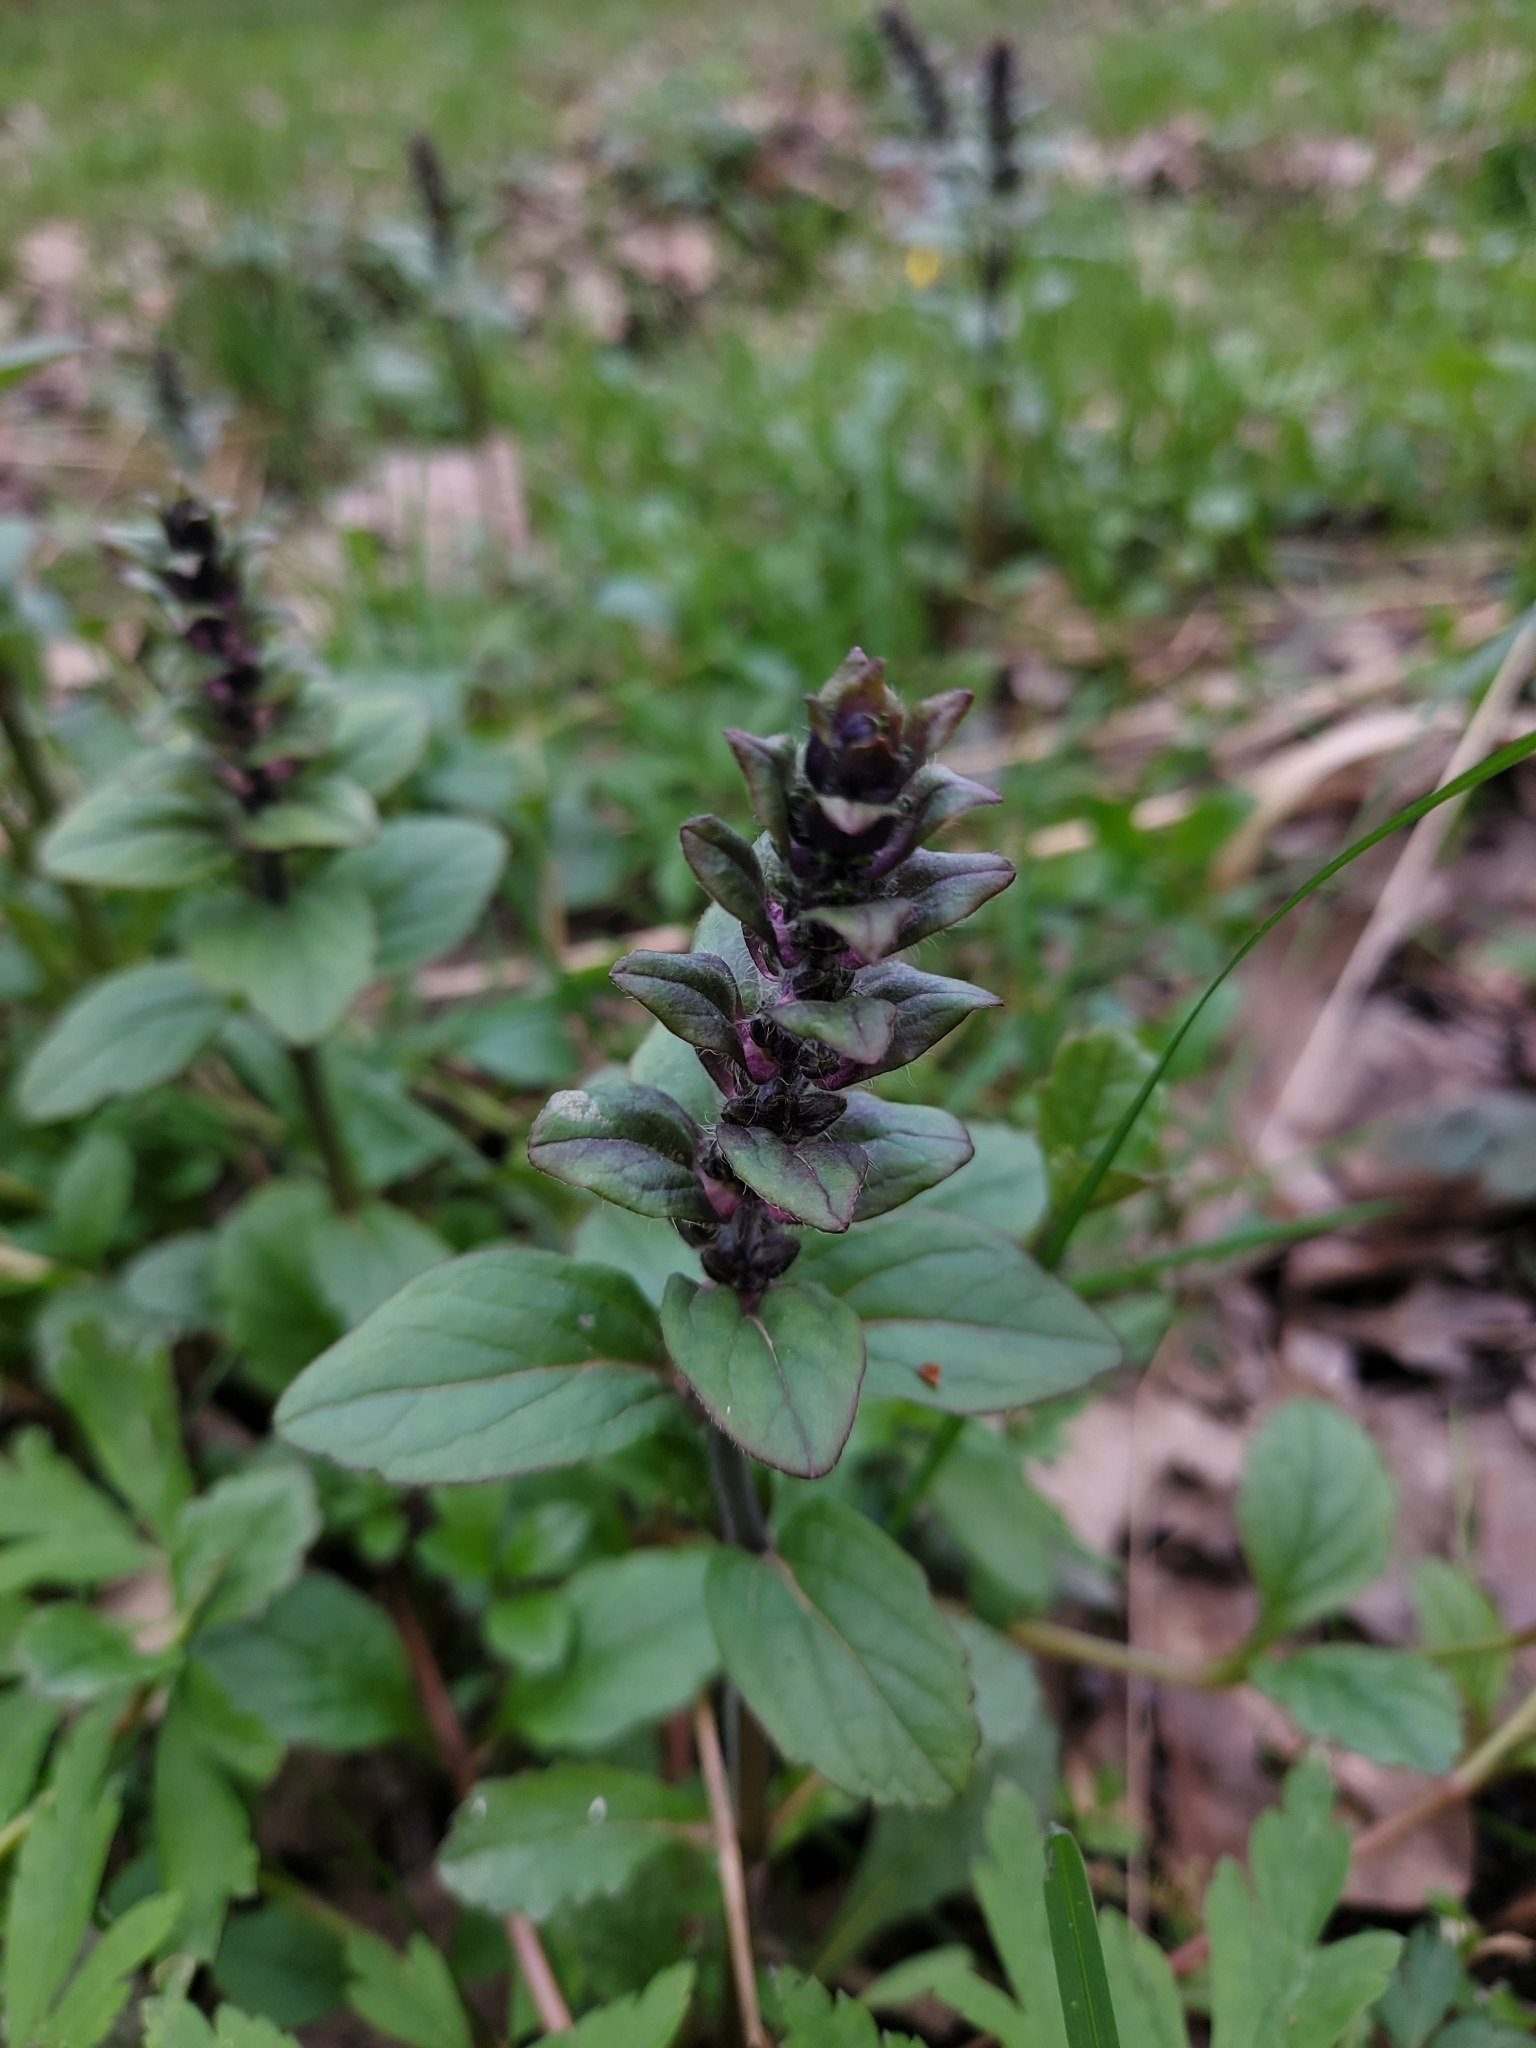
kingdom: Plantae
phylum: Tracheophyta
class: Magnoliopsida
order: Lamiales
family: Lamiaceae
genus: Ajuga
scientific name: Ajuga reptans
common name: Bugle
